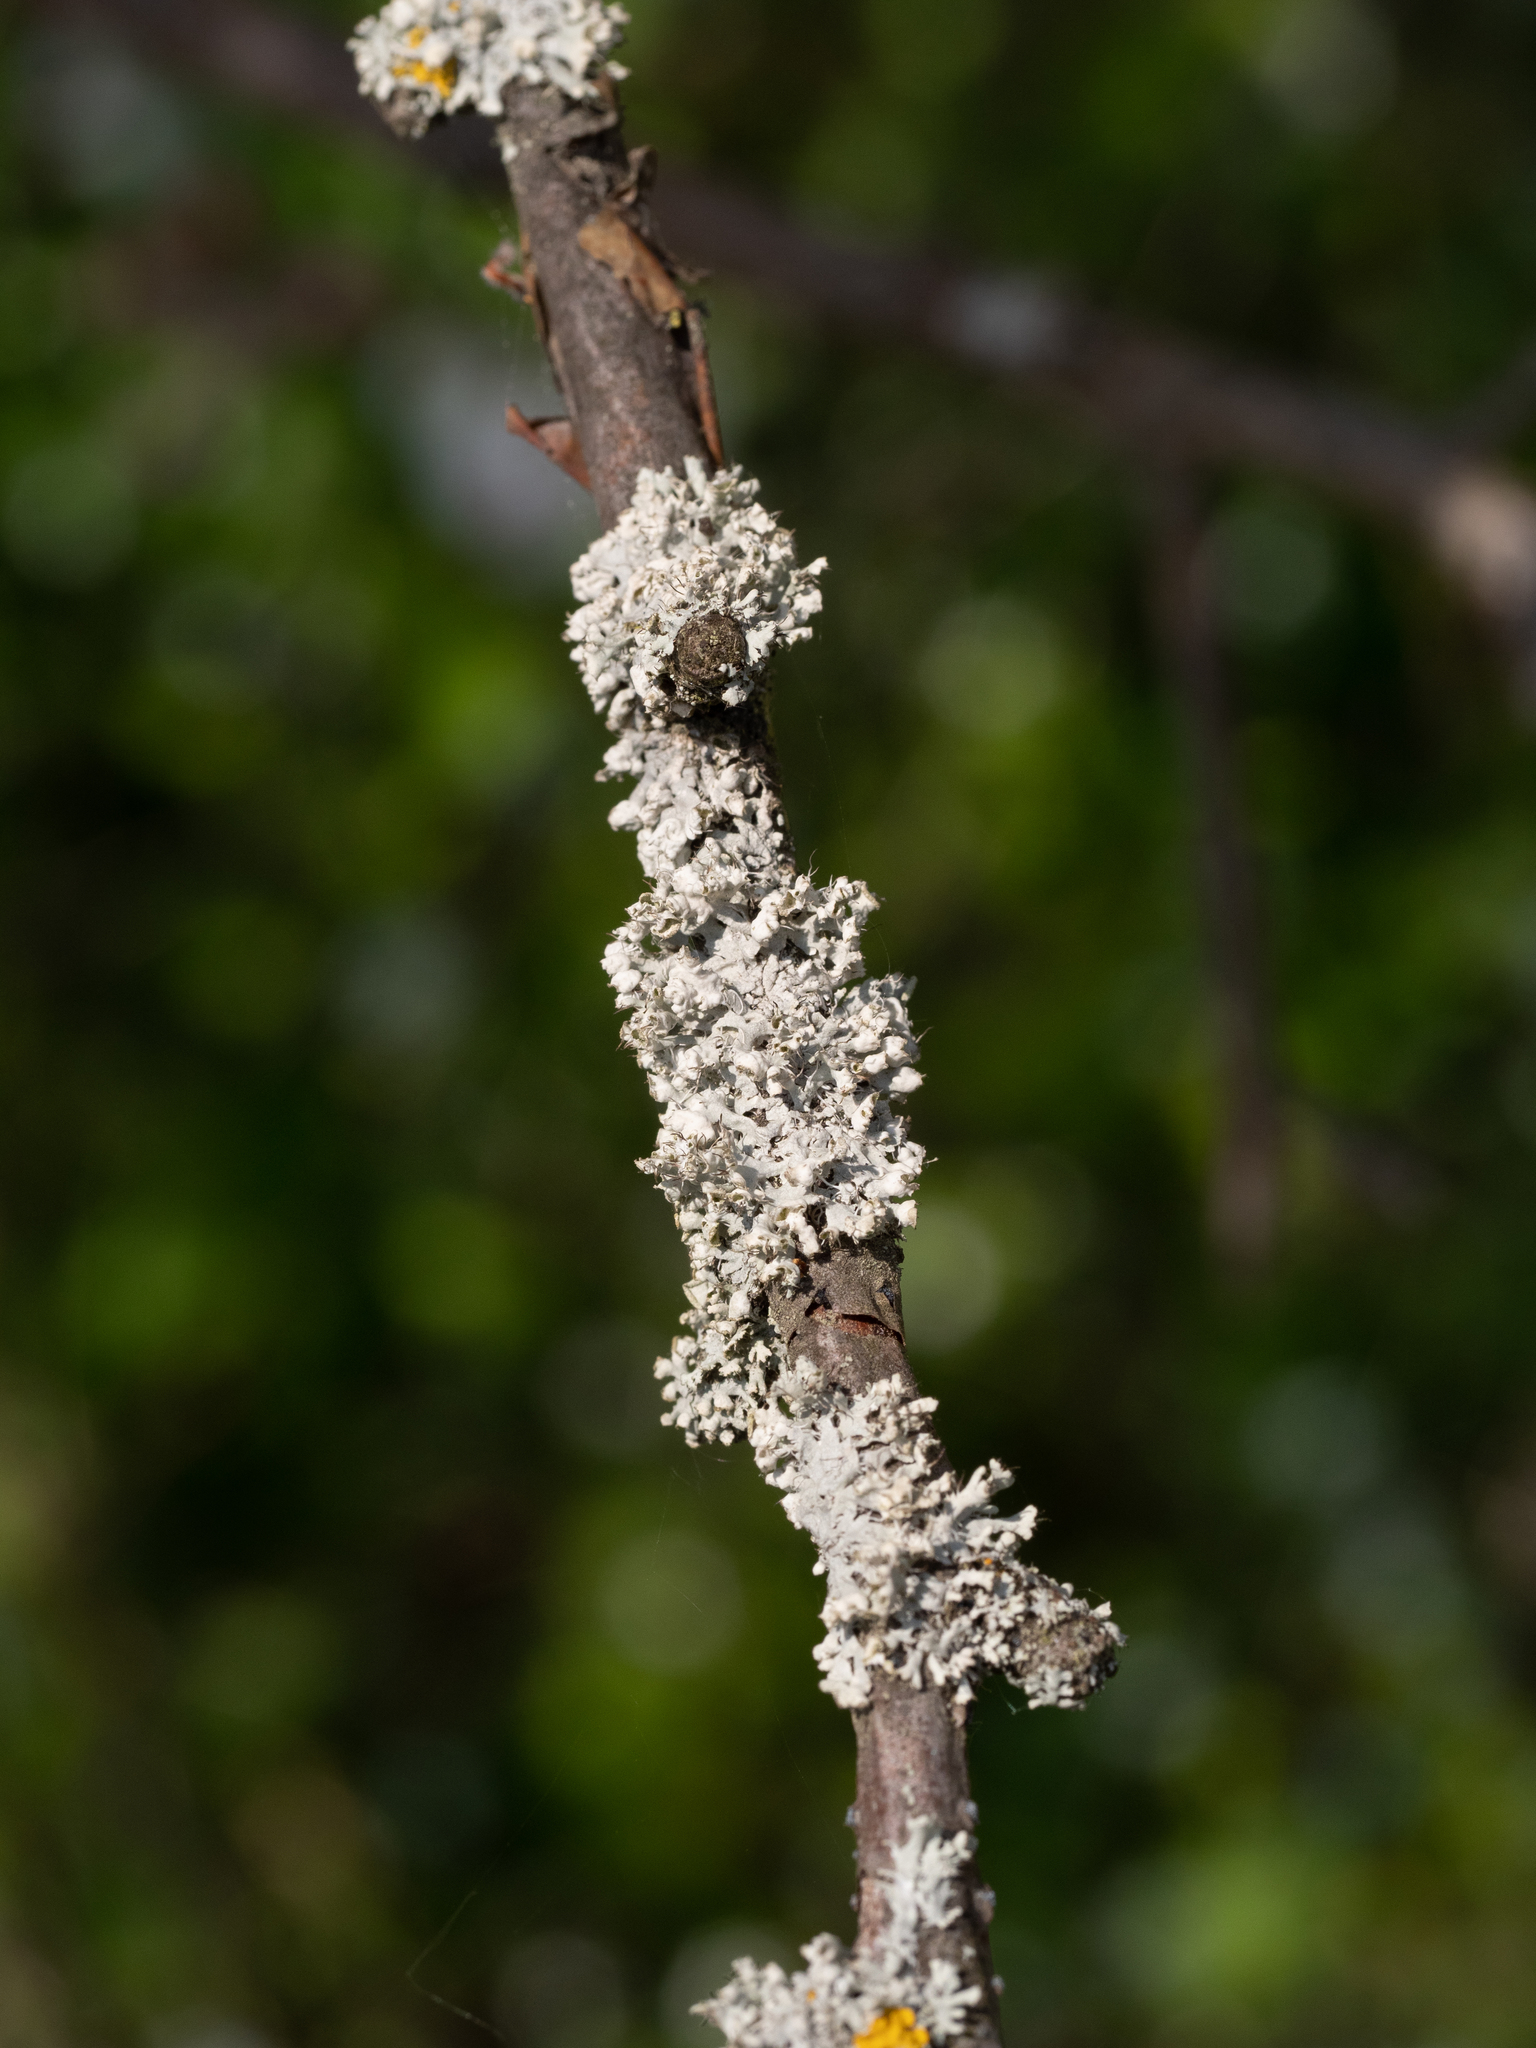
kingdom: Fungi
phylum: Ascomycota
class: Lecanoromycetes
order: Caliciales
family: Physciaceae
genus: Physcia
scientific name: Physcia adscendens
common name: Hooded rosette lichen
